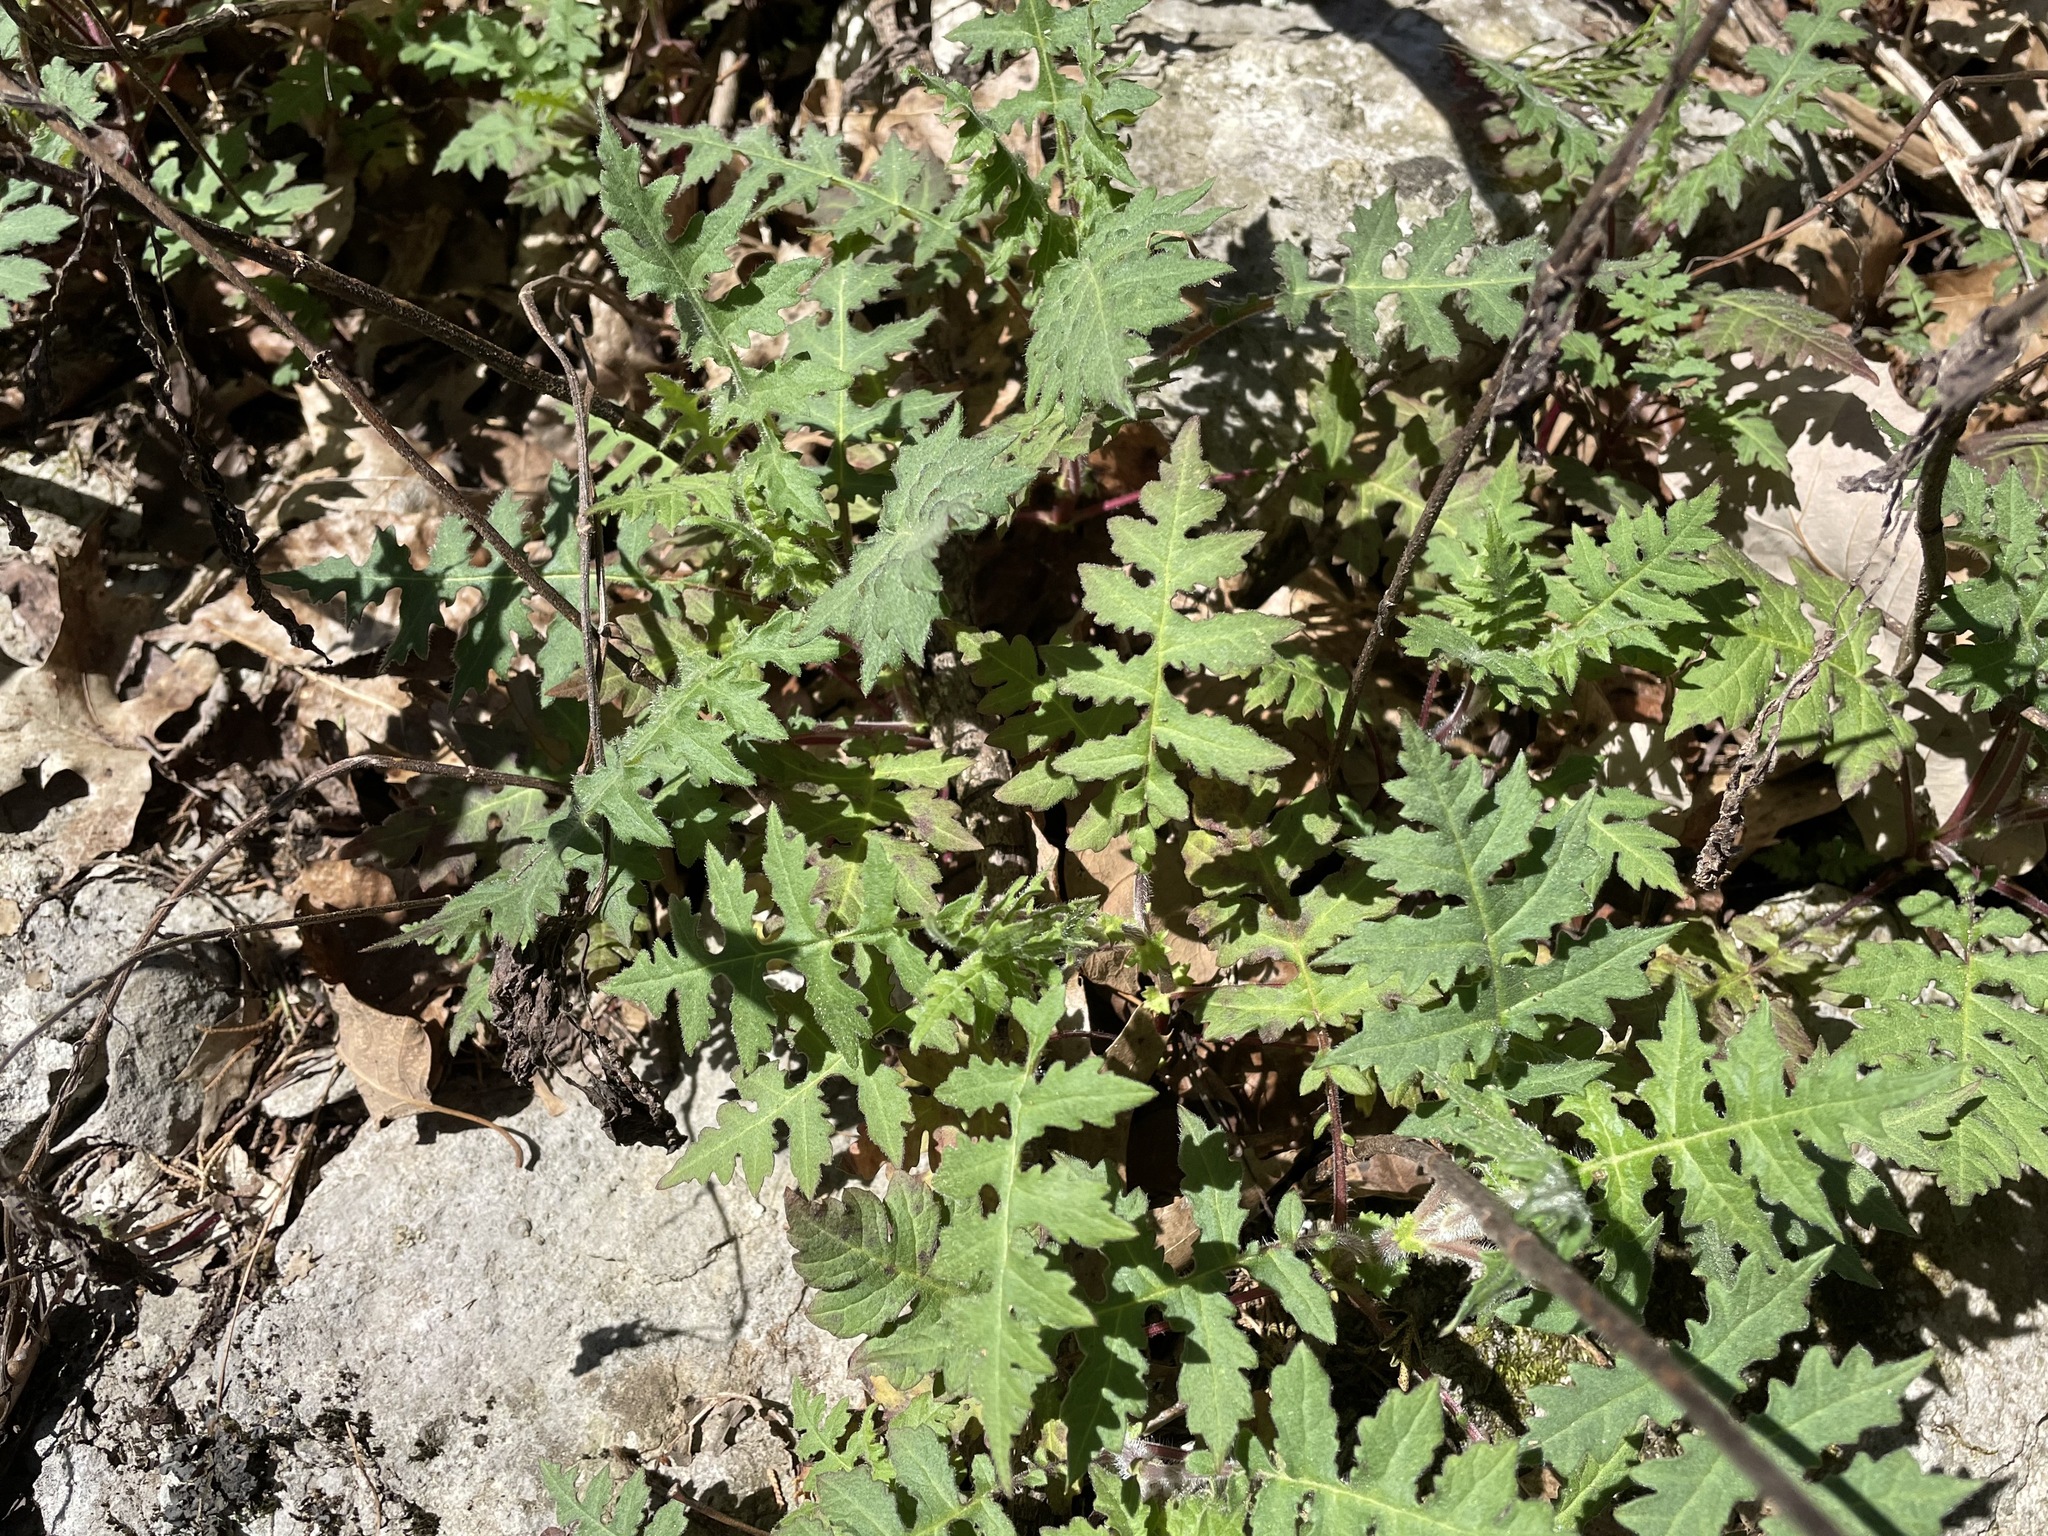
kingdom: Plantae
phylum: Tracheophyta
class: Magnoliopsida
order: Asterales
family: Asteraceae
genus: Polymnia
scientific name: Polymnia canadensis
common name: Pale-flowered leafcup
